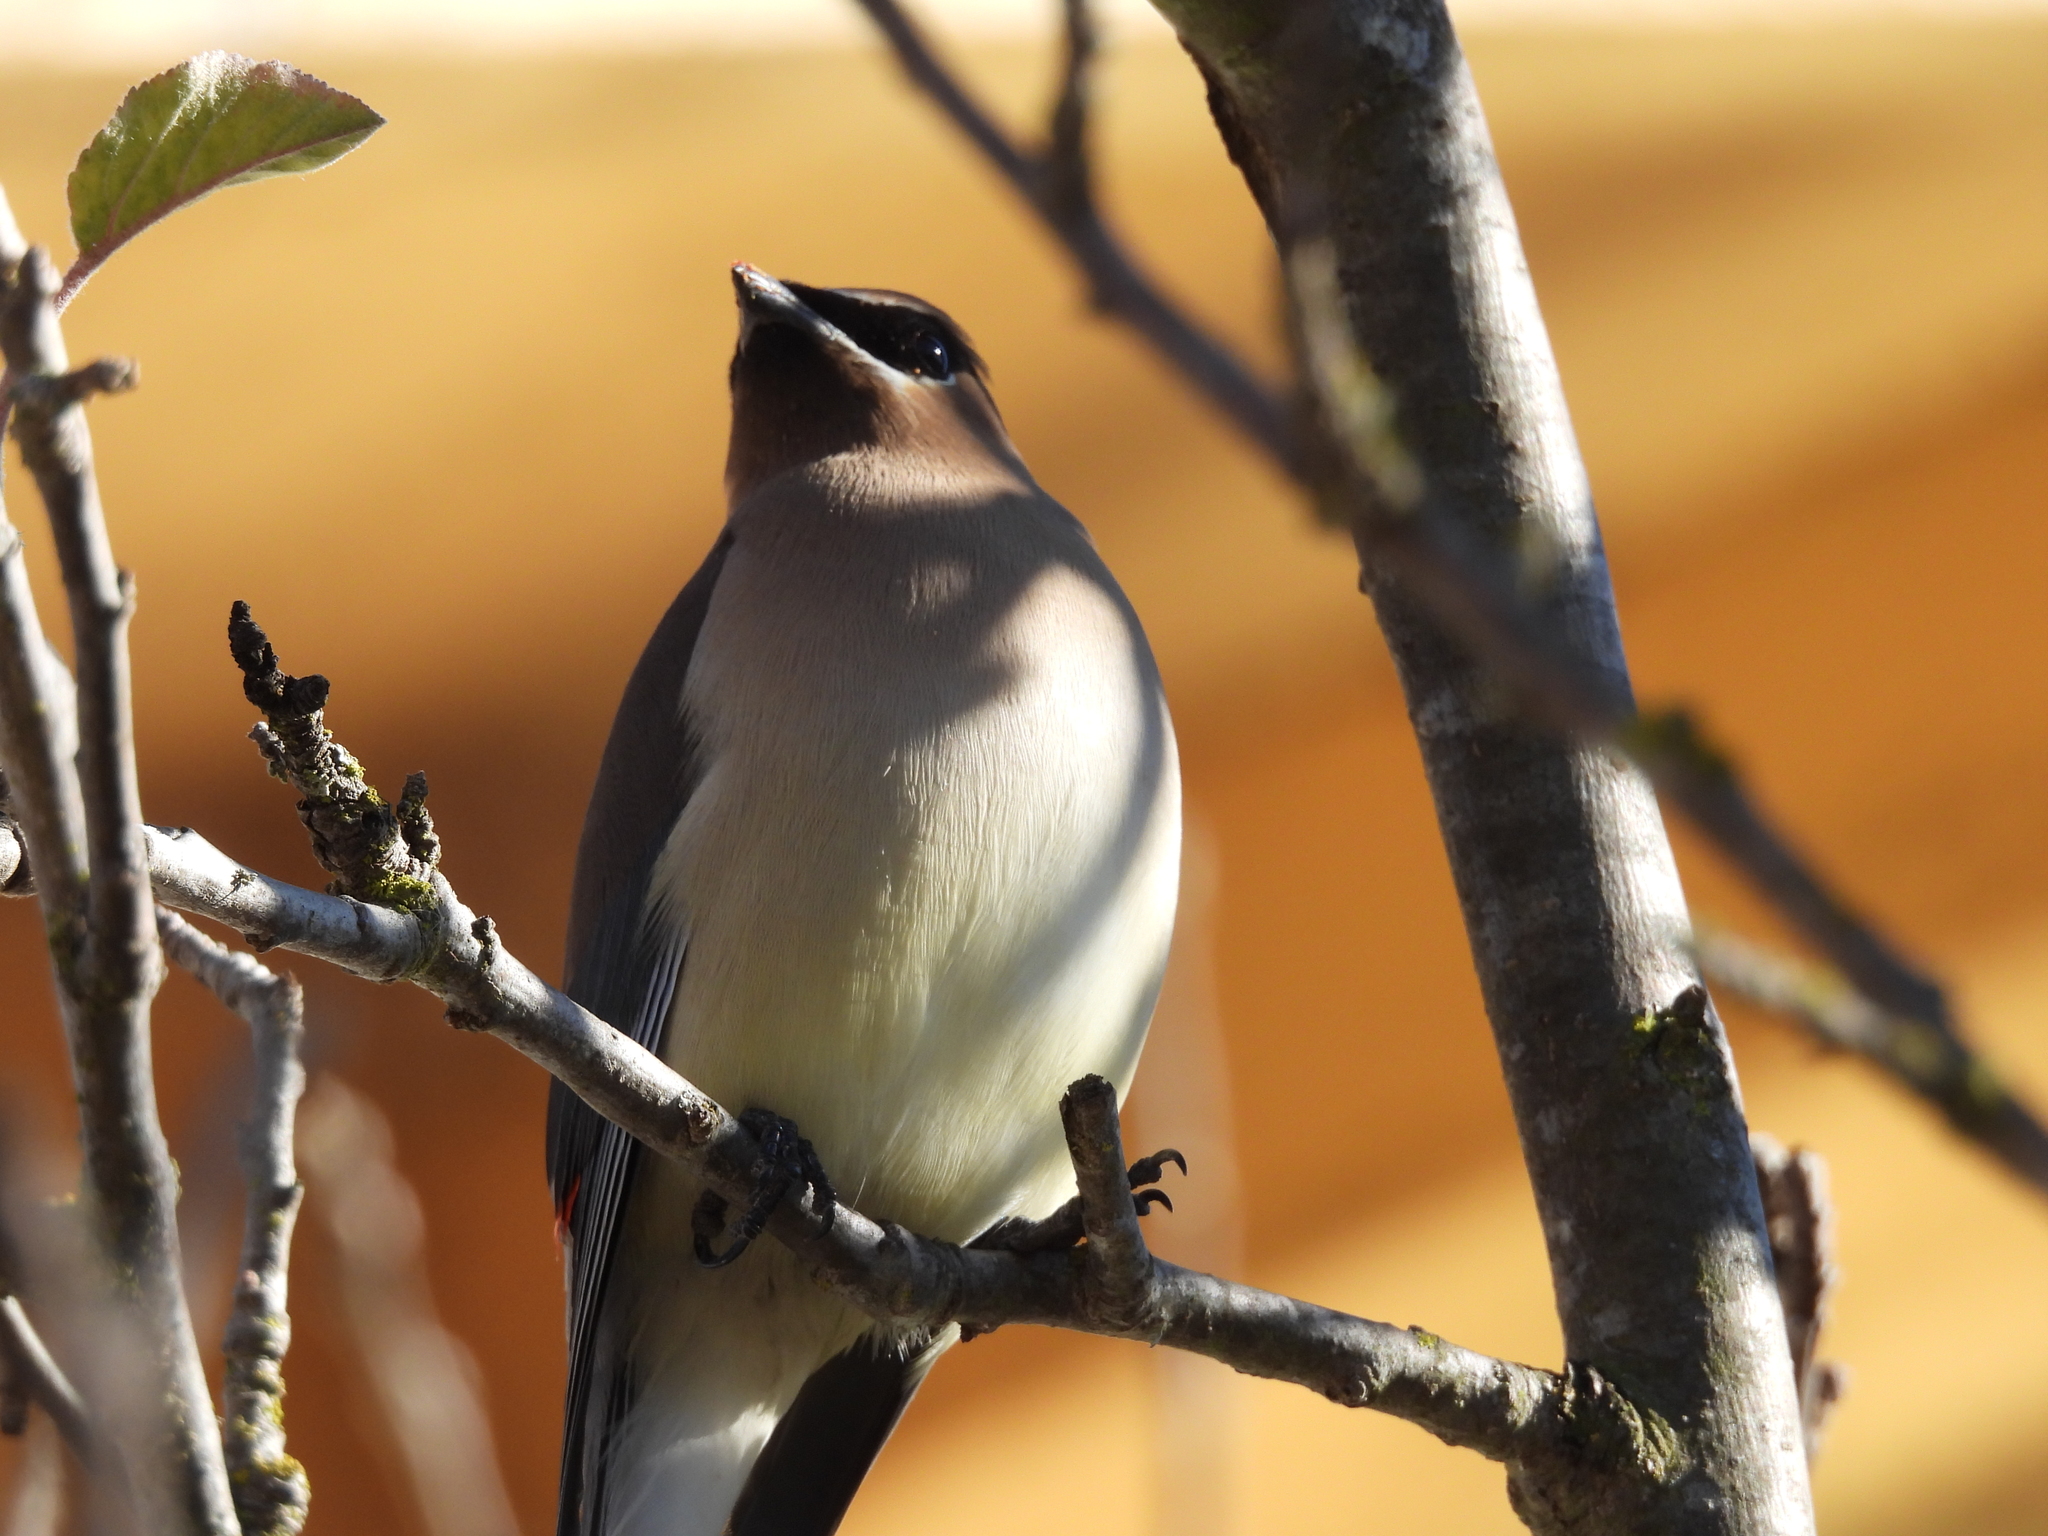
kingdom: Animalia
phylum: Chordata
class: Aves
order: Passeriformes
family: Bombycillidae
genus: Bombycilla
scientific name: Bombycilla cedrorum
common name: Cedar waxwing
